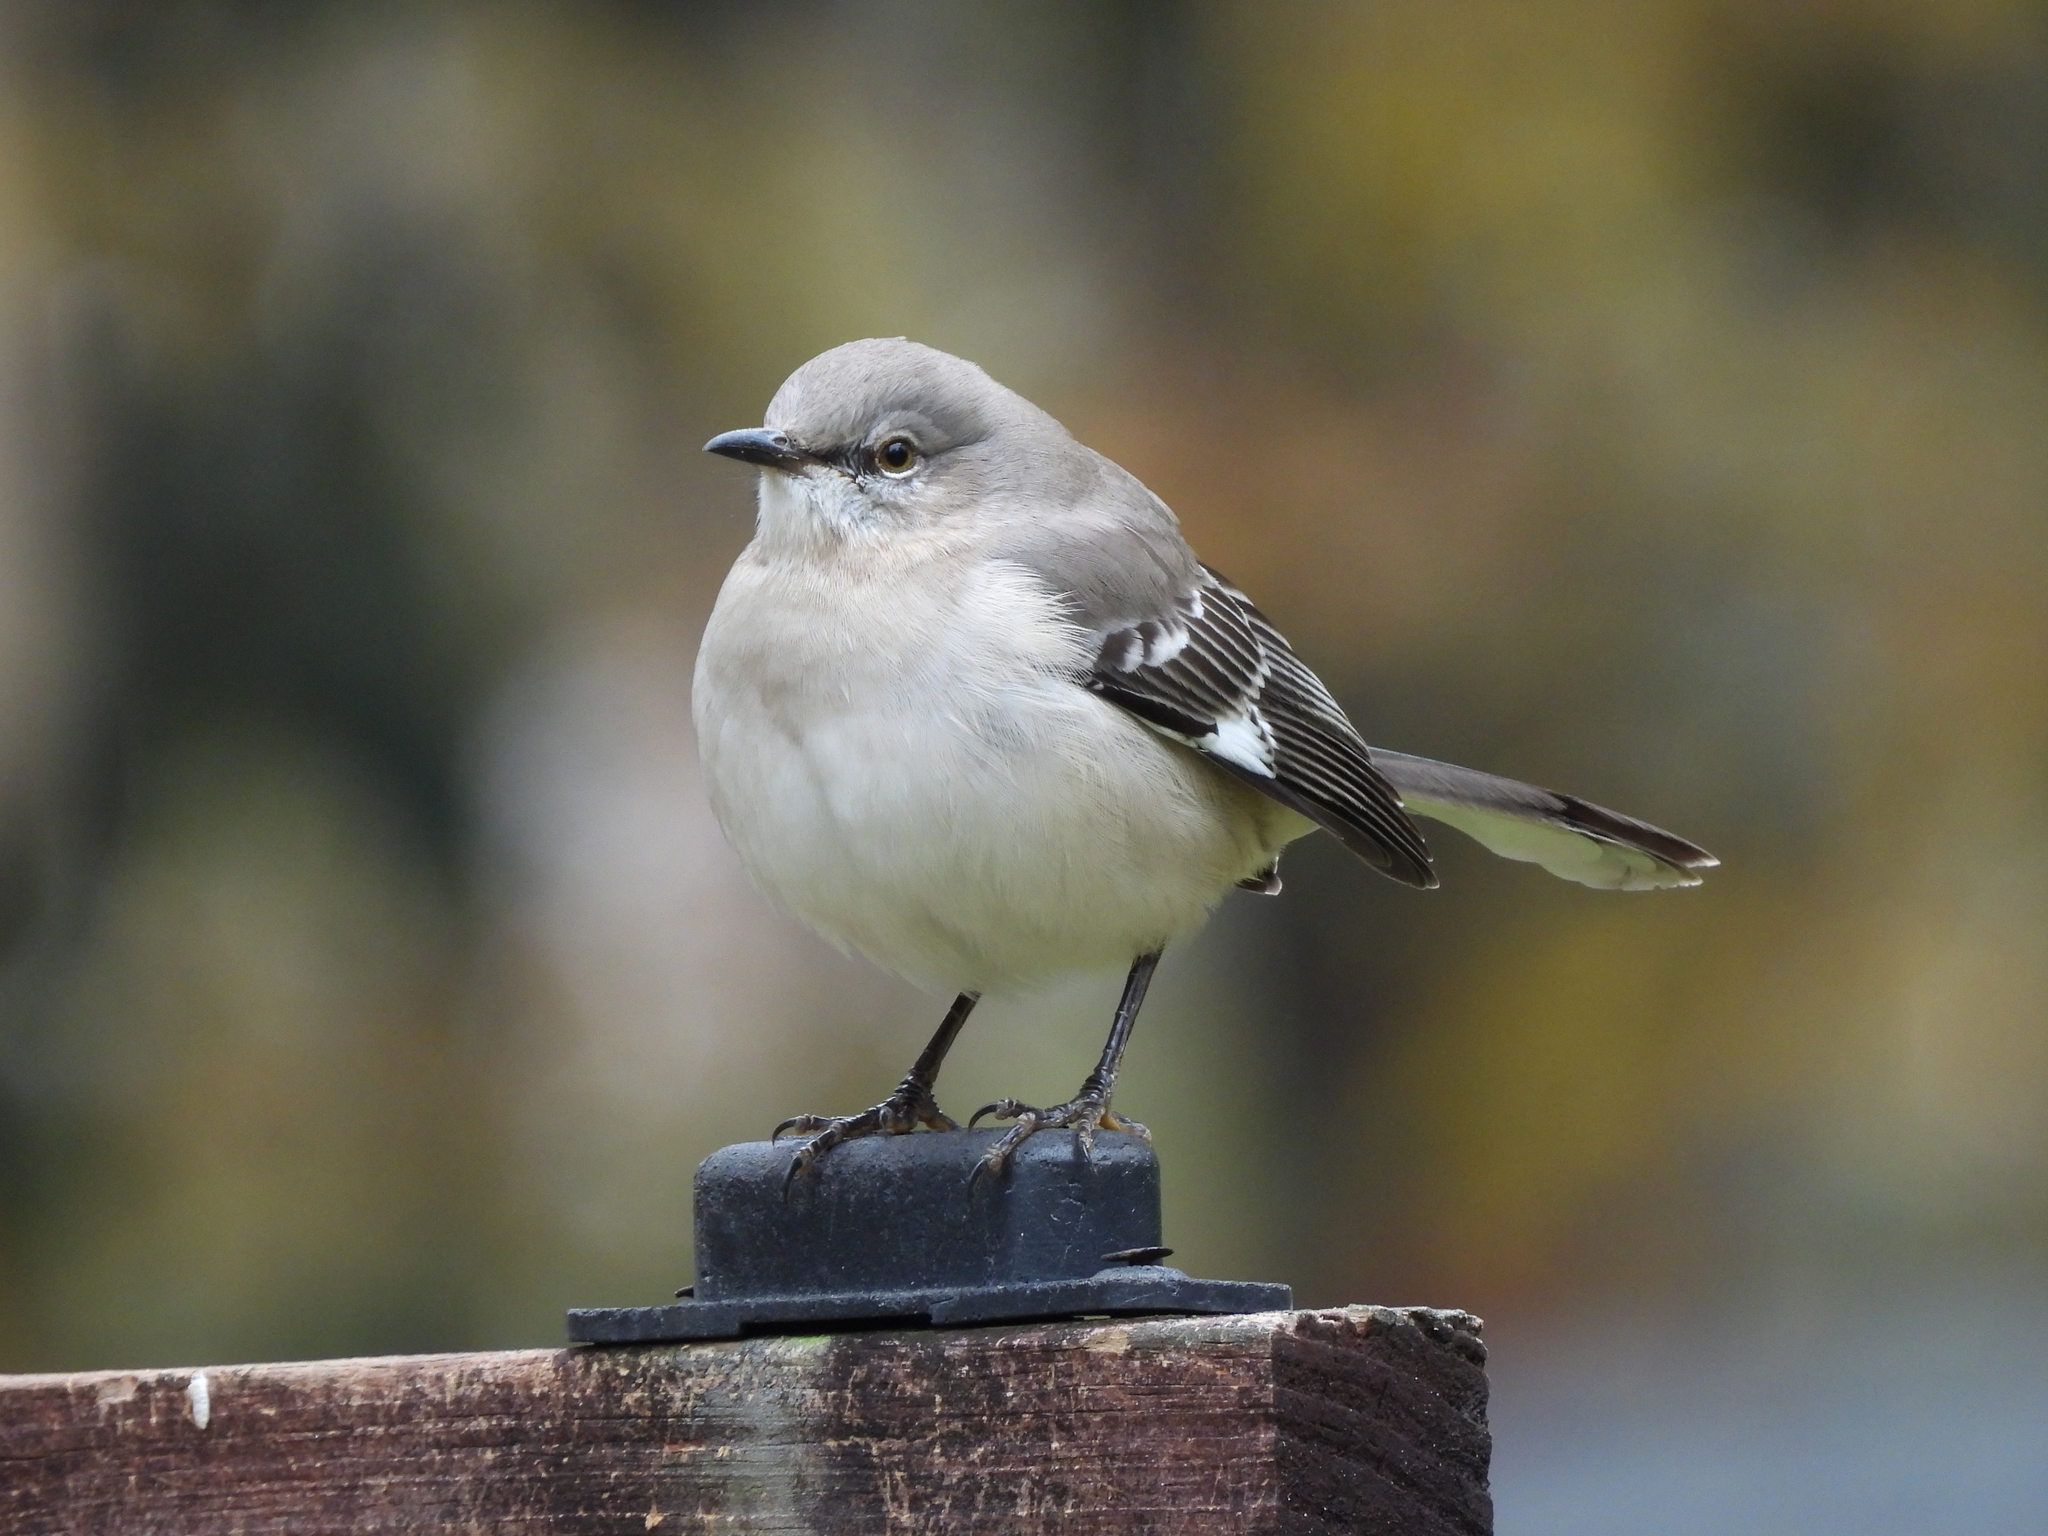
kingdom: Animalia
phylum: Chordata
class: Aves
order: Passeriformes
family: Mimidae
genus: Mimus
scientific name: Mimus polyglottos
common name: Northern mockingbird
